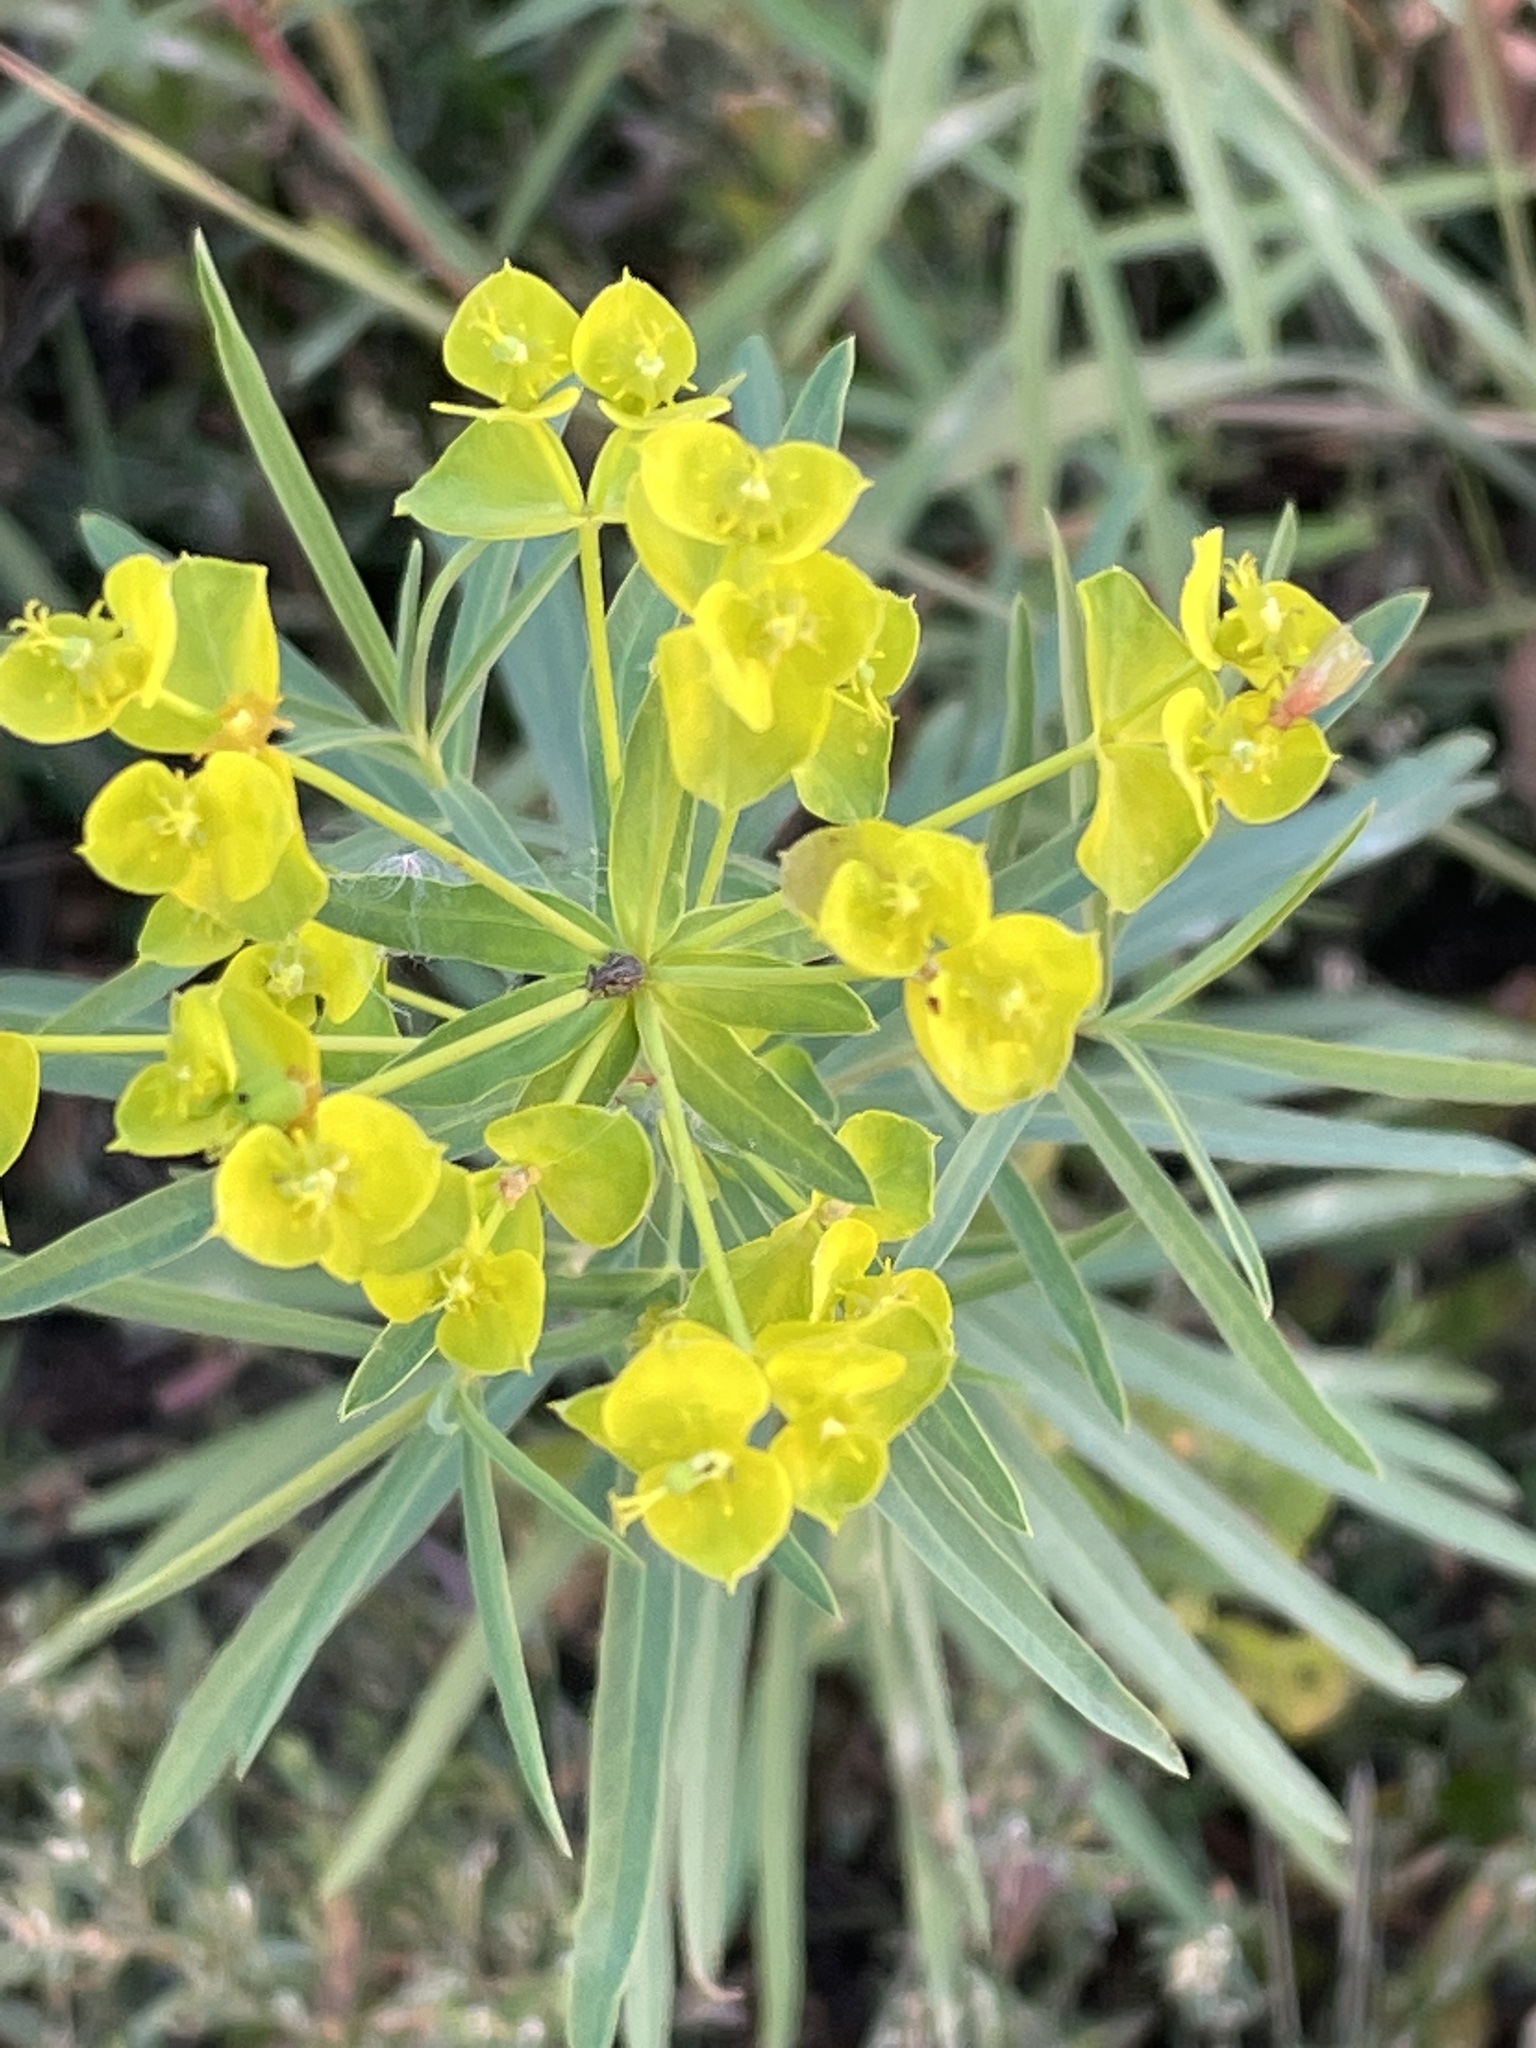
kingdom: Plantae
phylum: Tracheophyta
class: Magnoliopsida
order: Malpighiales
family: Euphorbiaceae
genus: Euphorbia
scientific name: Euphorbia virgata
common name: Leafy spurge
